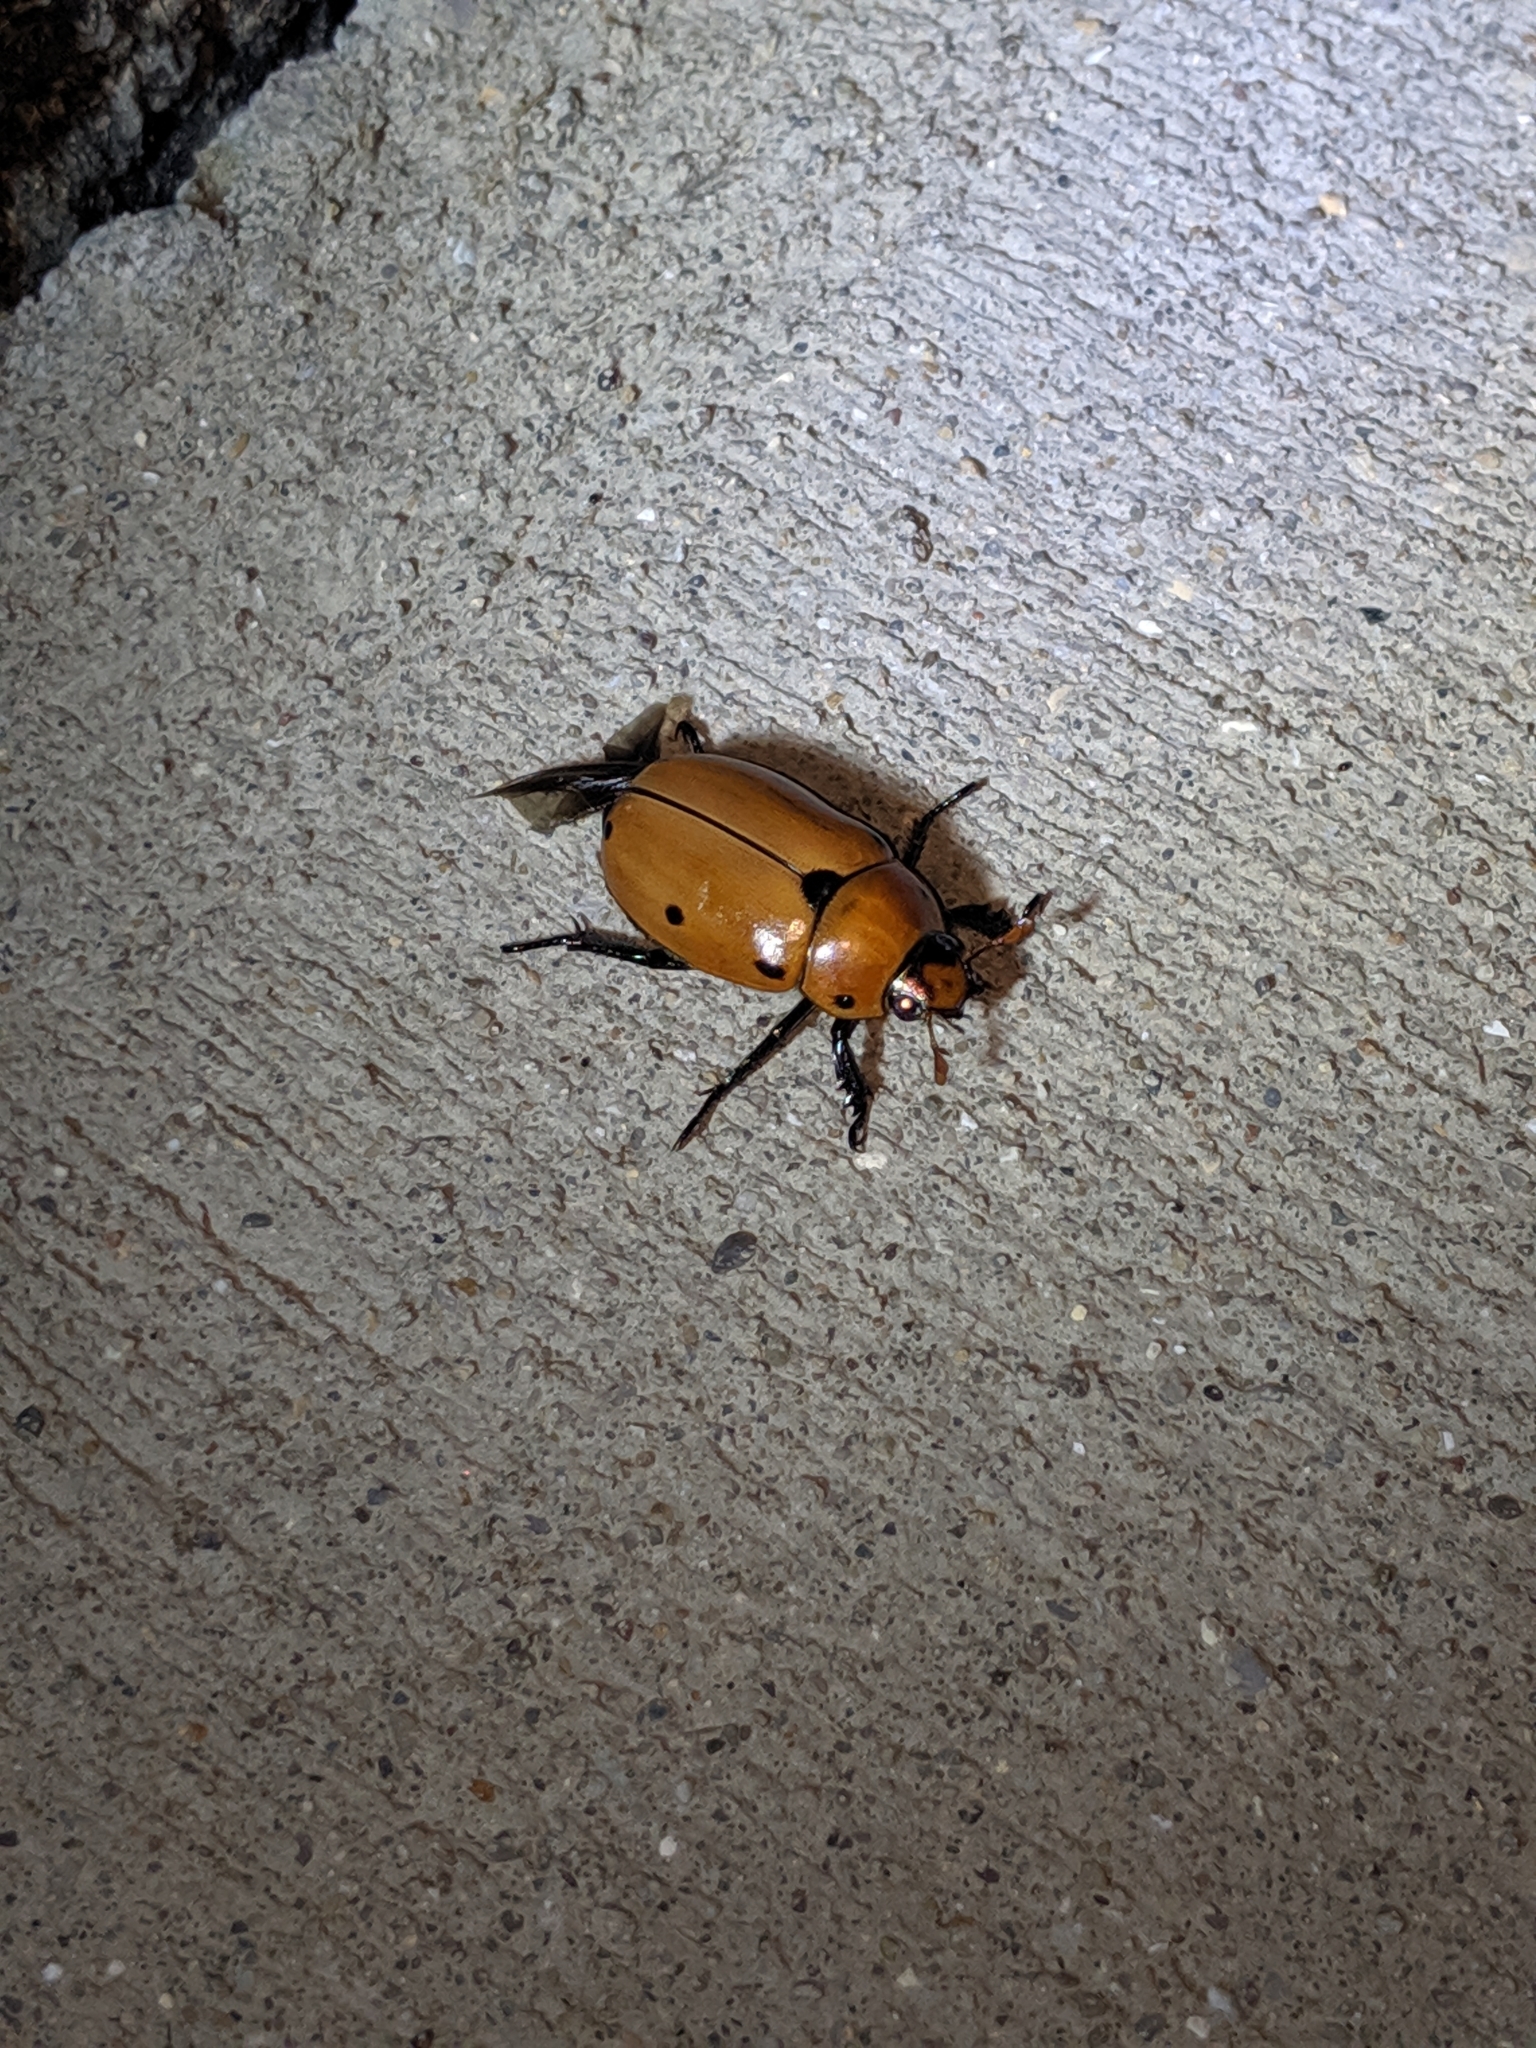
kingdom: Animalia
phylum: Arthropoda
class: Insecta
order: Coleoptera
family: Scarabaeidae
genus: Pelidnota
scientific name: Pelidnota punctata
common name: Grapevine beetle
